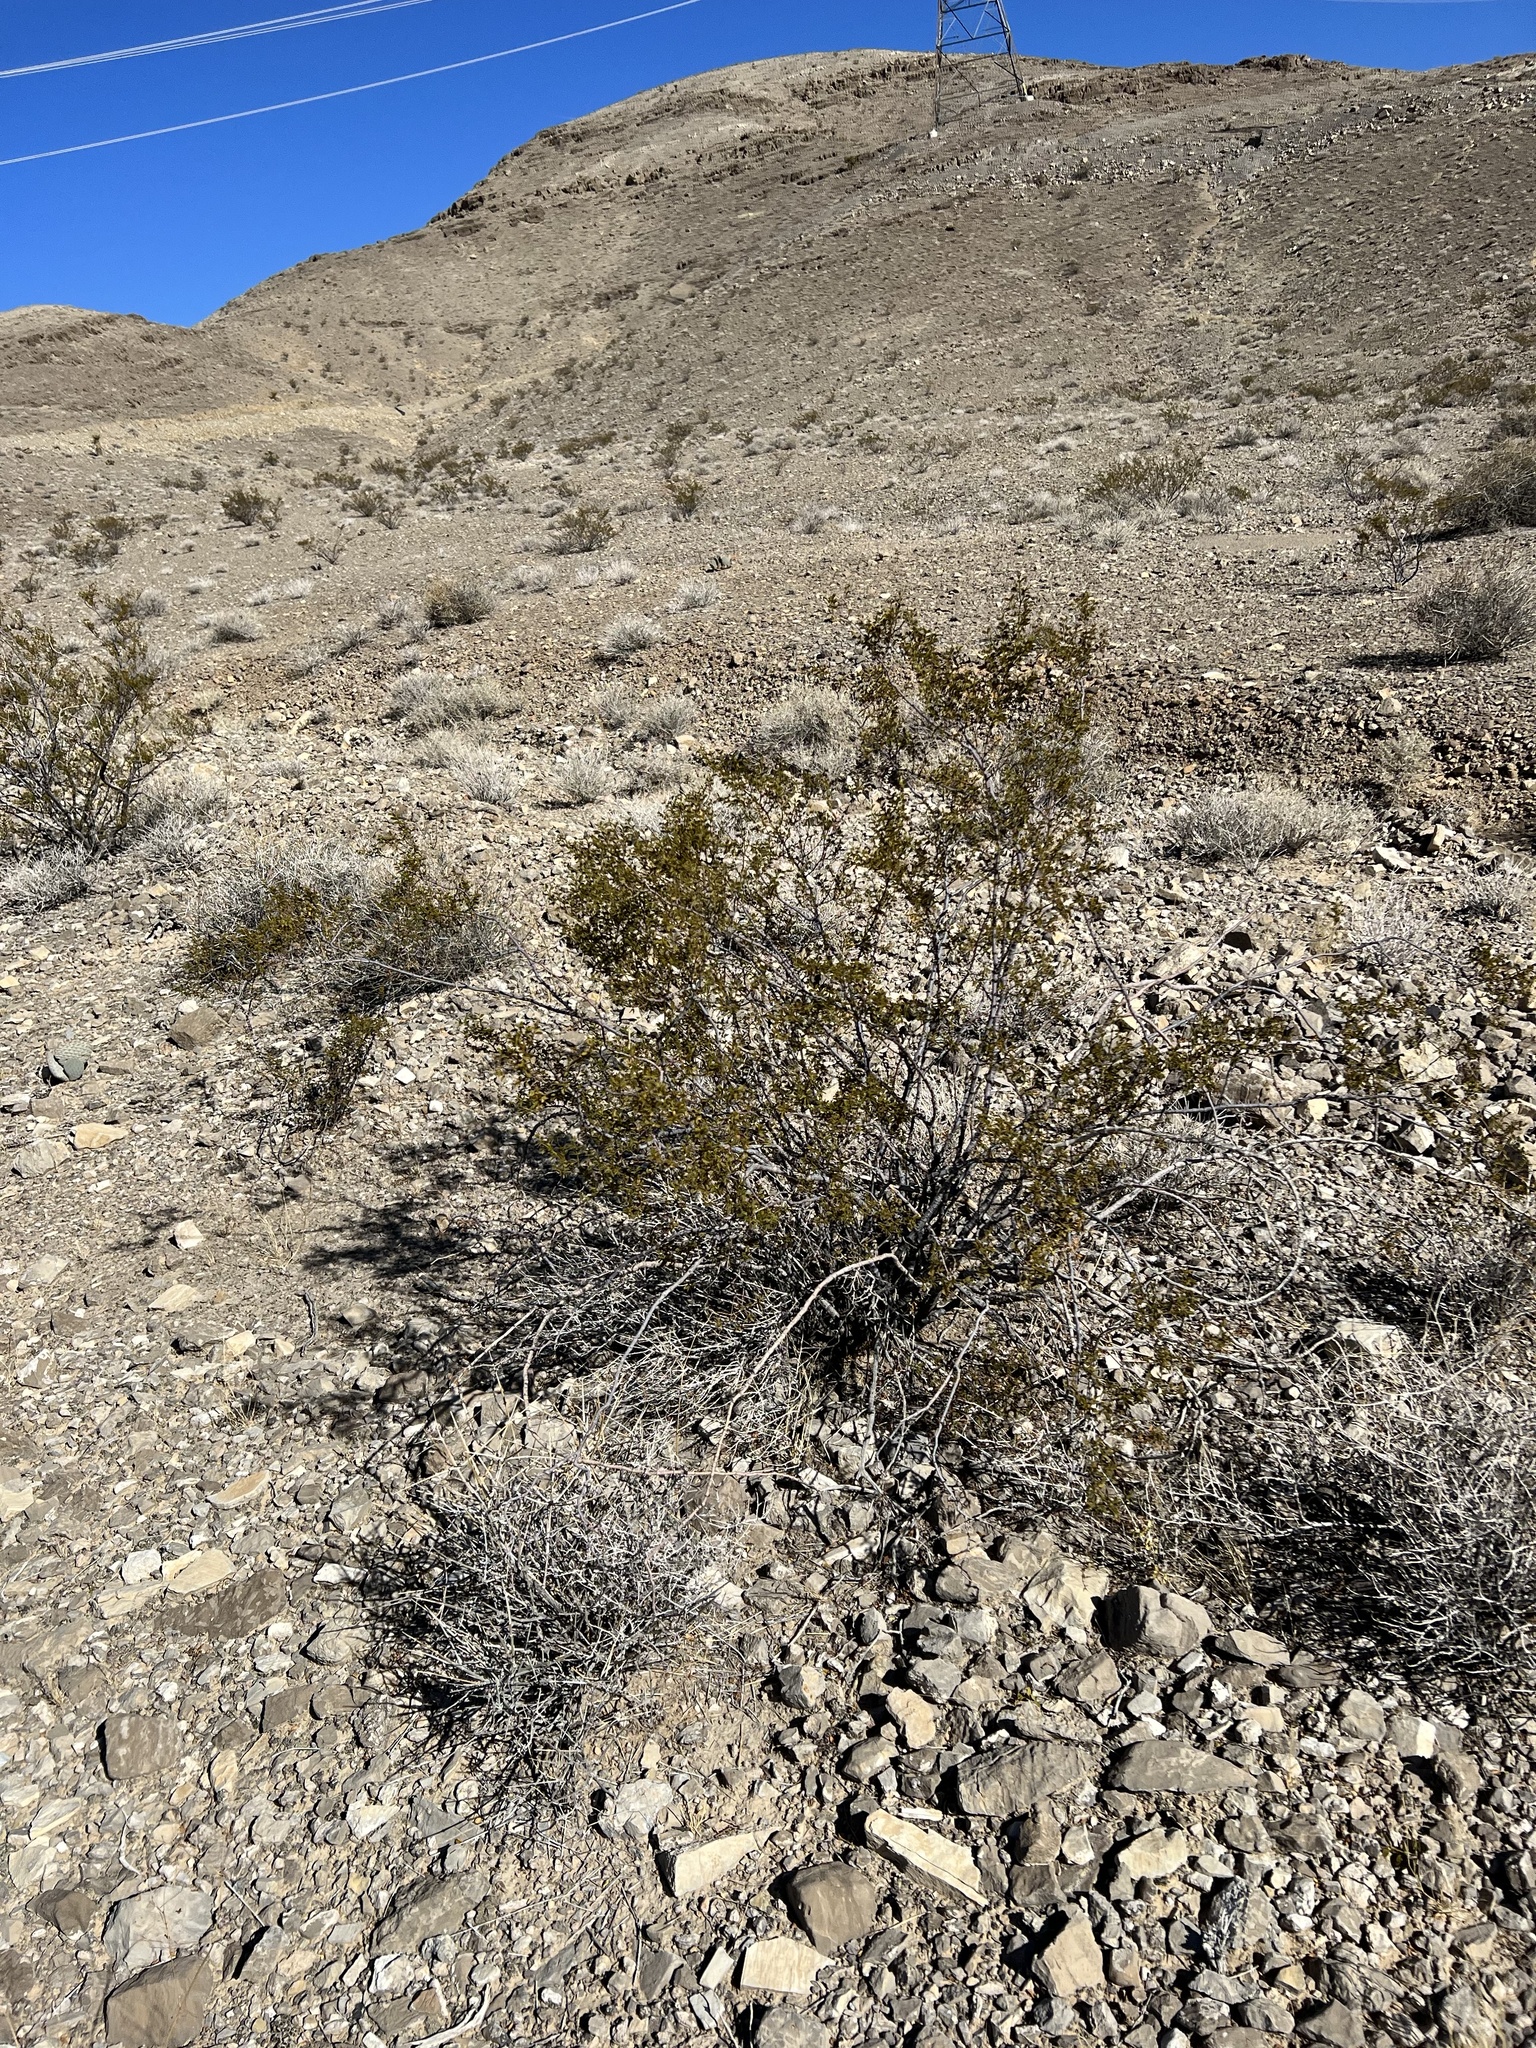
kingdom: Plantae
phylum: Tracheophyta
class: Magnoliopsida
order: Zygophyllales
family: Zygophyllaceae
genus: Larrea
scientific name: Larrea tridentata
